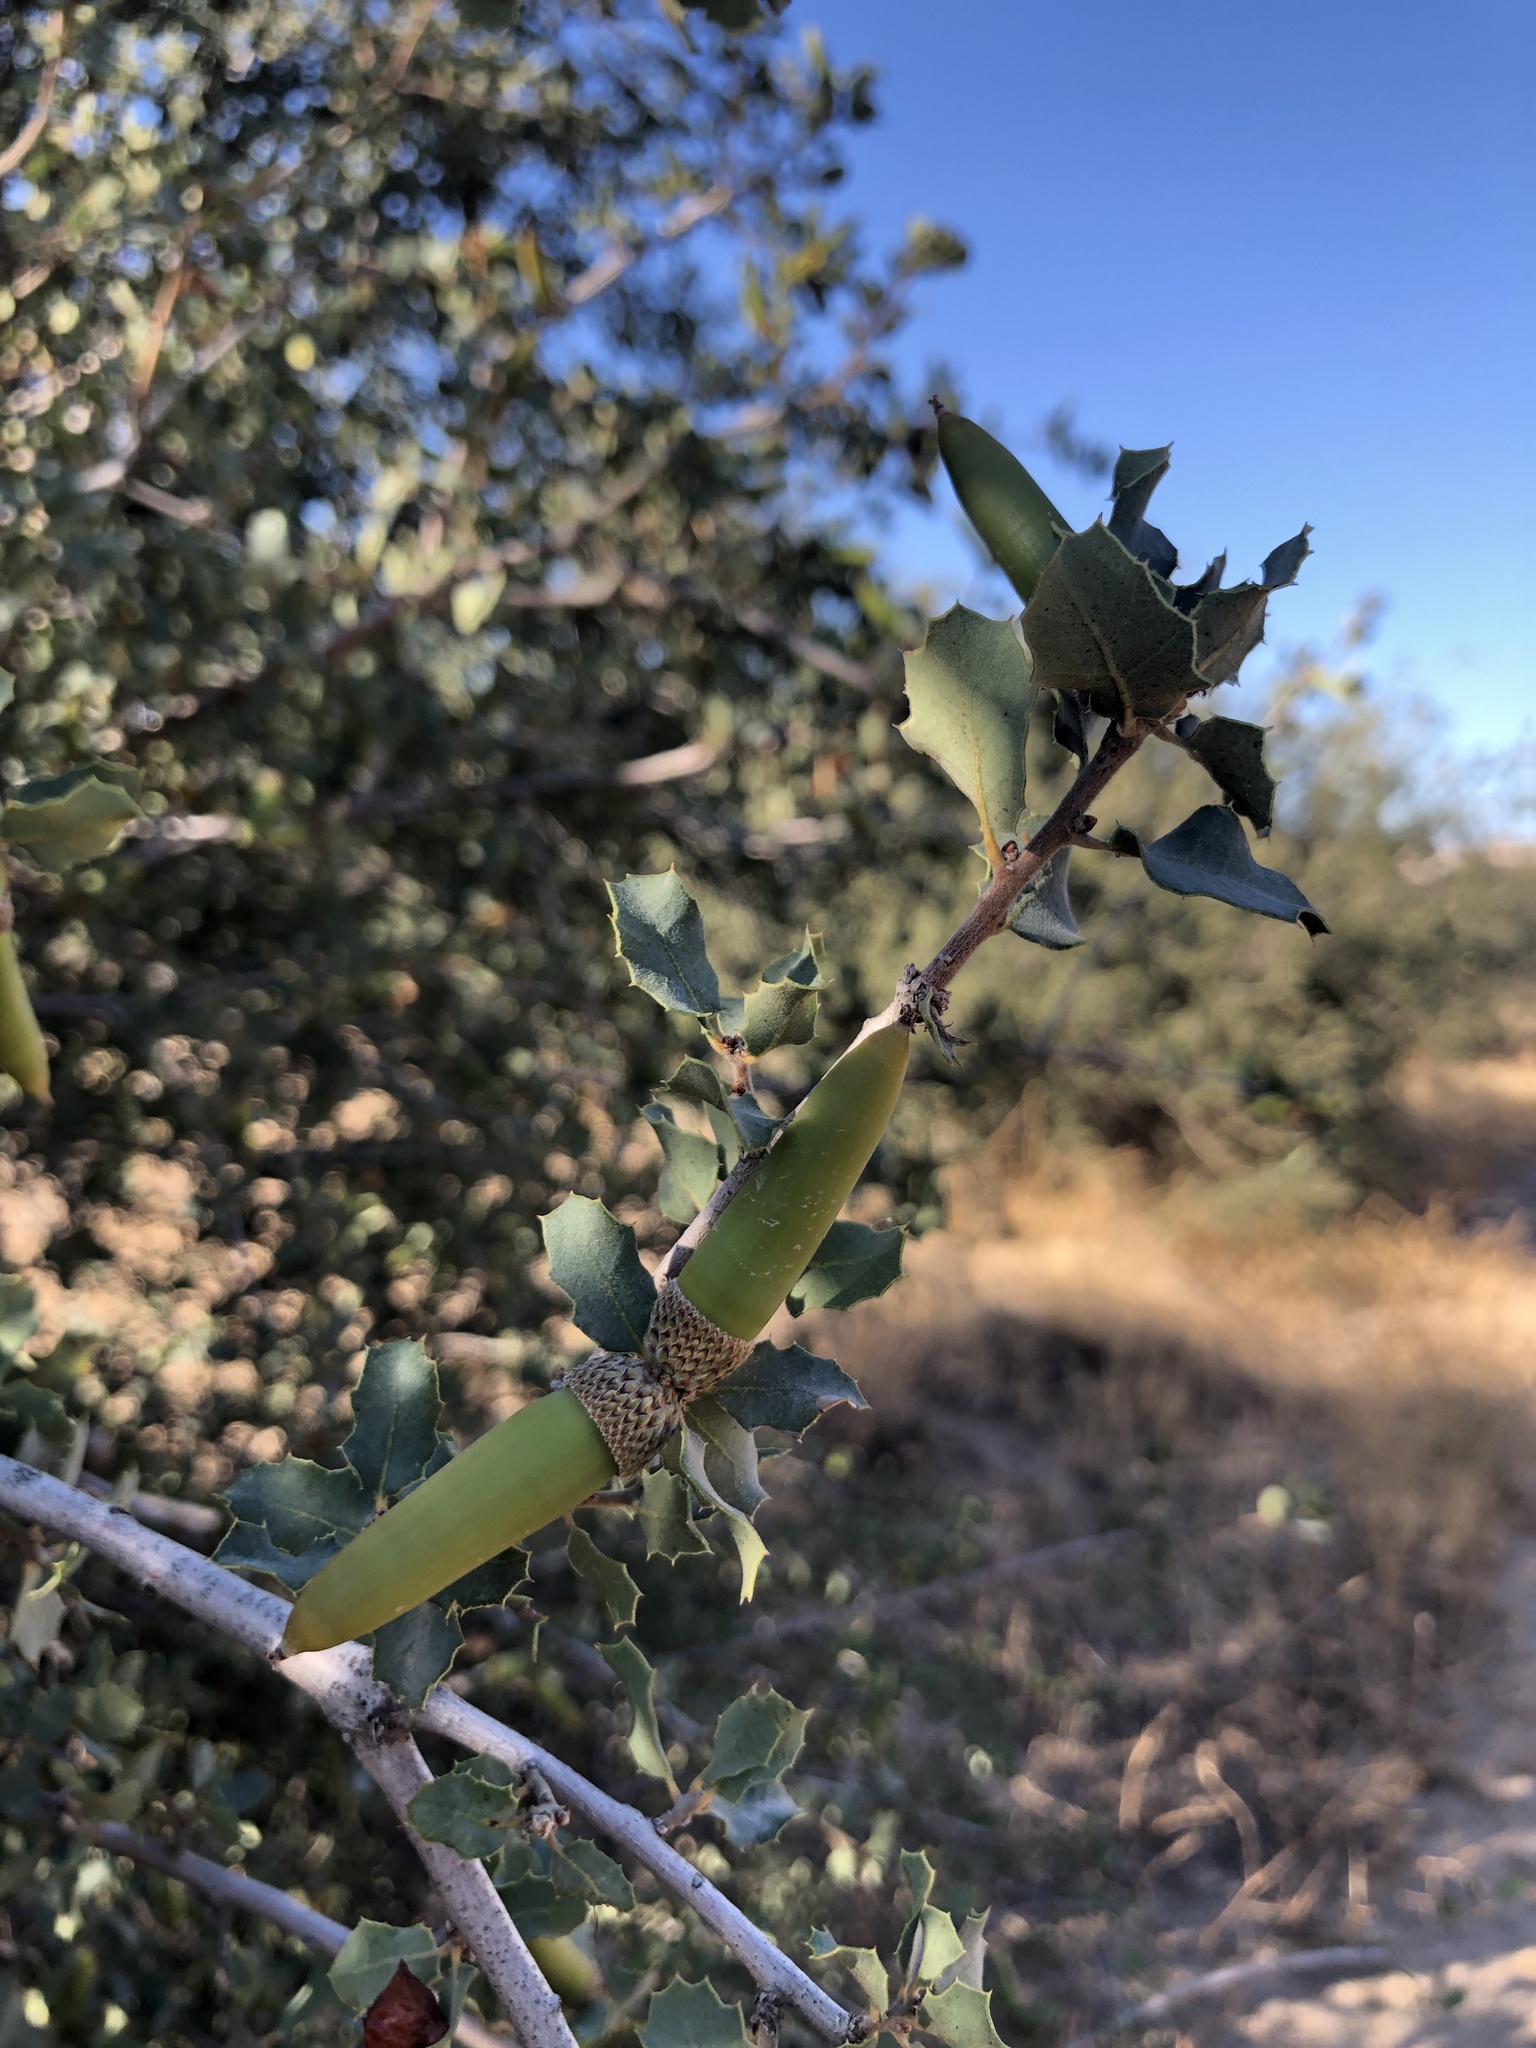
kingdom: Plantae
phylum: Tracheophyta
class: Magnoliopsida
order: Fagales
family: Fagaceae
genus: Quercus
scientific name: Quercus john-tuckeri
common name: Tucker's oak
